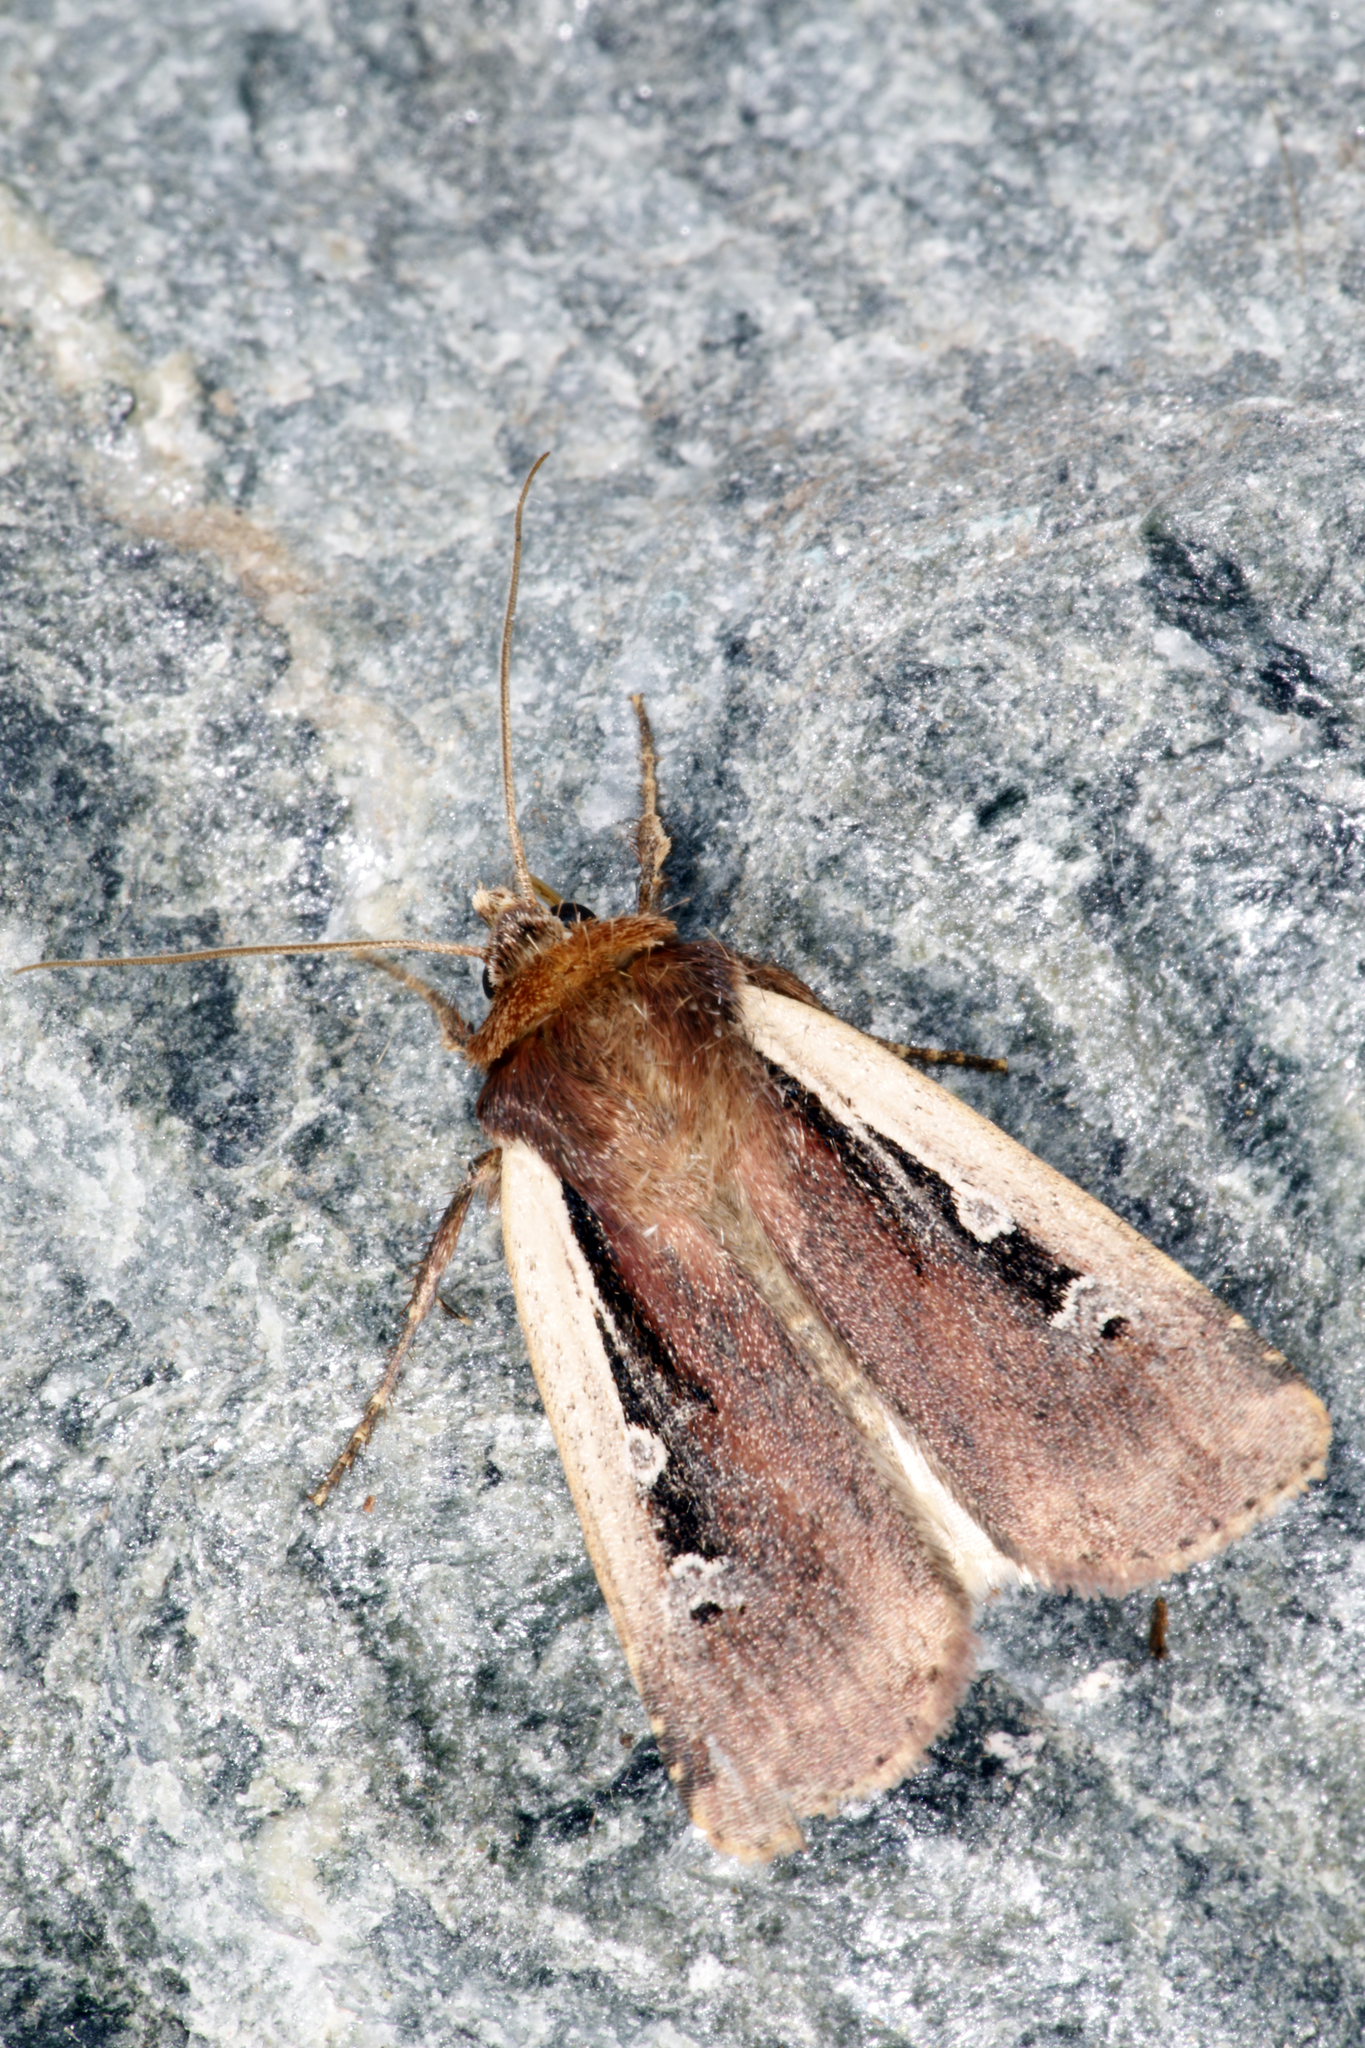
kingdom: Animalia
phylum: Arthropoda
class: Insecta
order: Lepidoptera
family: Noctuidae
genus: Ochropleura
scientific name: Ochropleura plecta
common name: Flame shoulder
